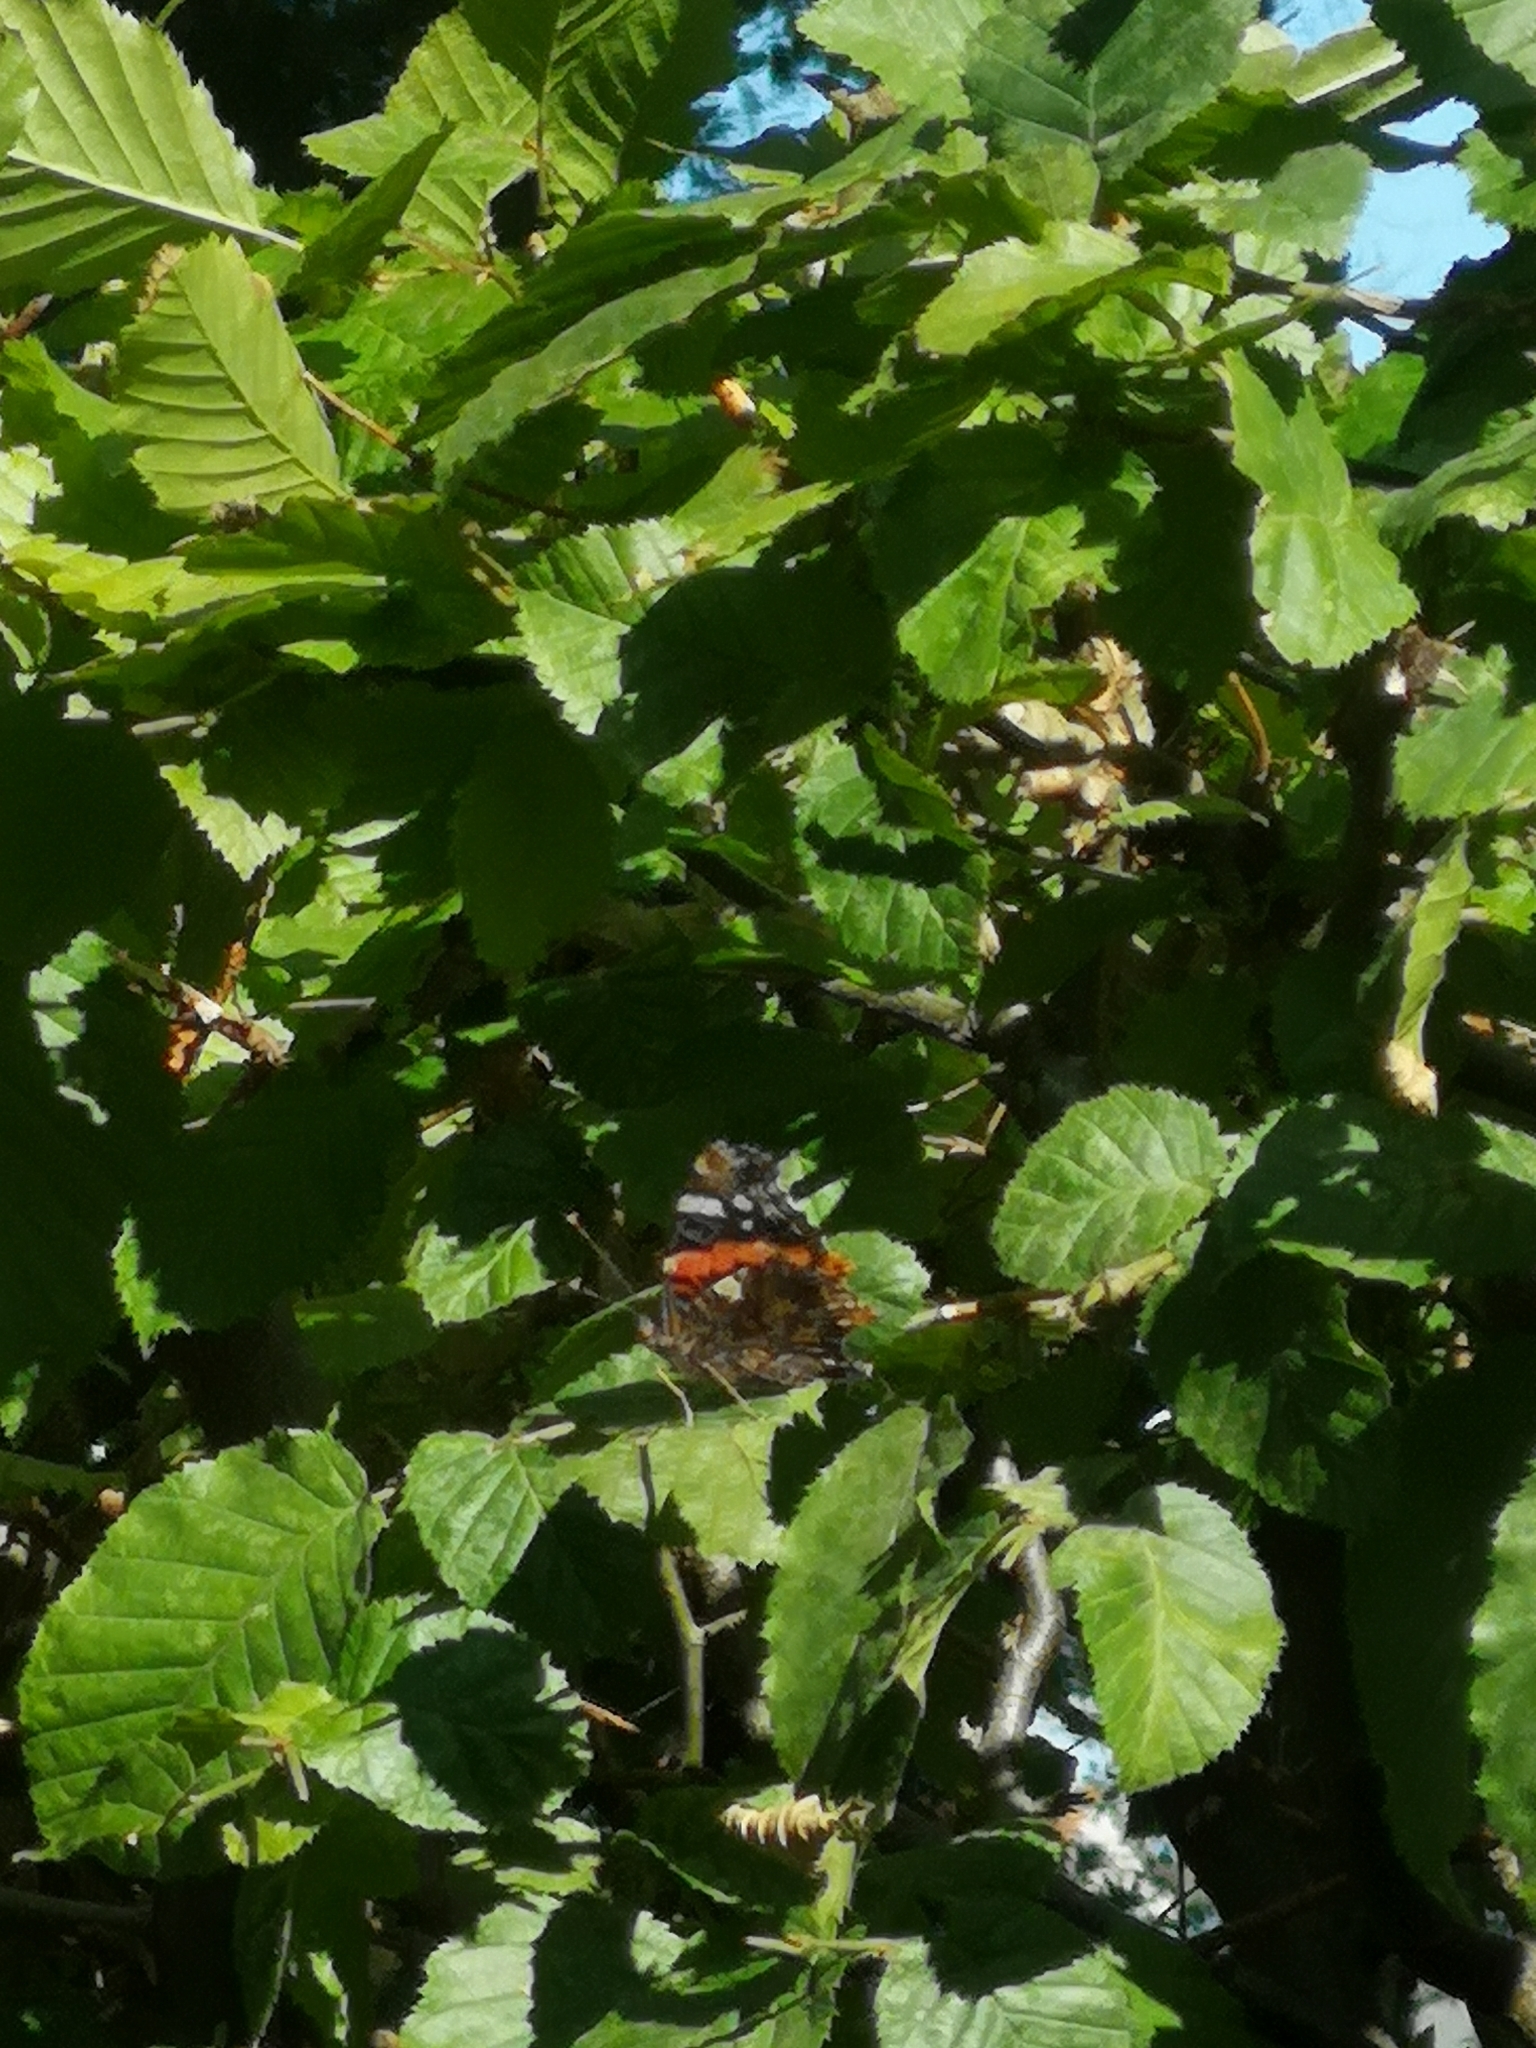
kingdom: Animalia
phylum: Arthropoda
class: Insecta
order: Lepidoptera
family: Nymphalidae
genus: Vanessa
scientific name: Vanessa atalanta
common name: Red admiral
